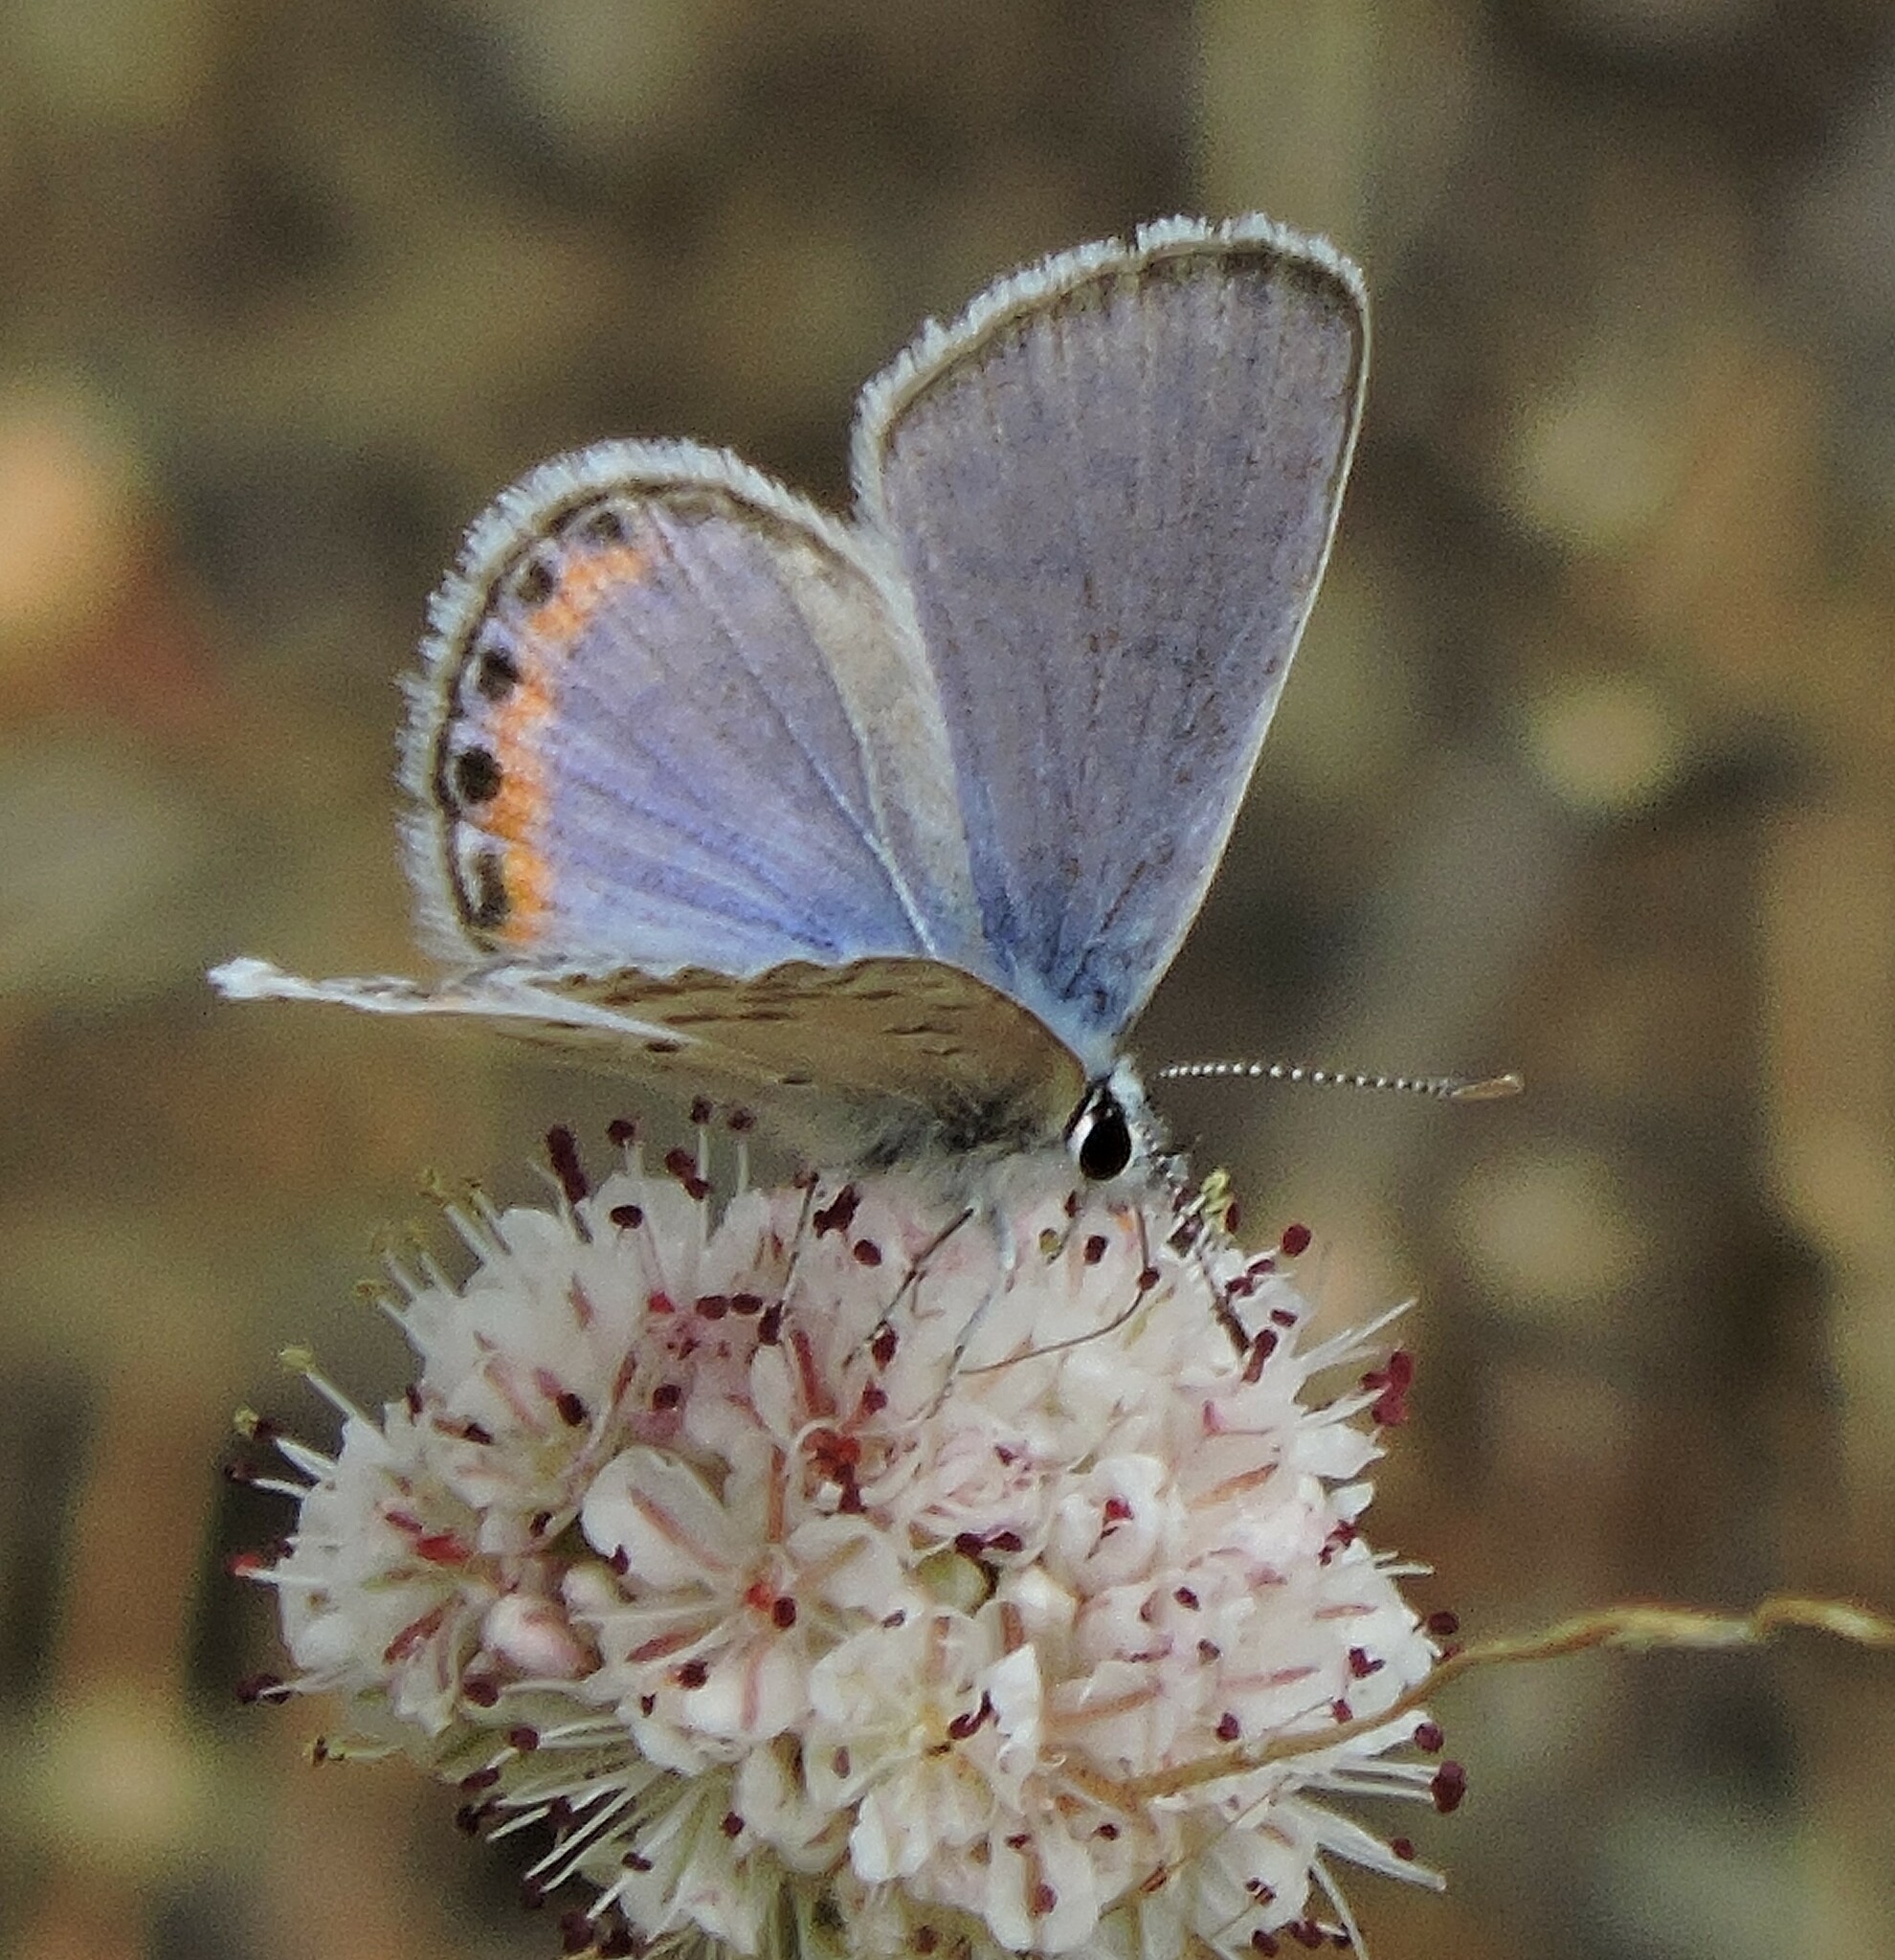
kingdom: Animalia
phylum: Arthropoda
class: Insecta
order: Lepidoptera
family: Lycaenidae
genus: Icaricia
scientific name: Icaricia acmon
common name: Acmon blue
